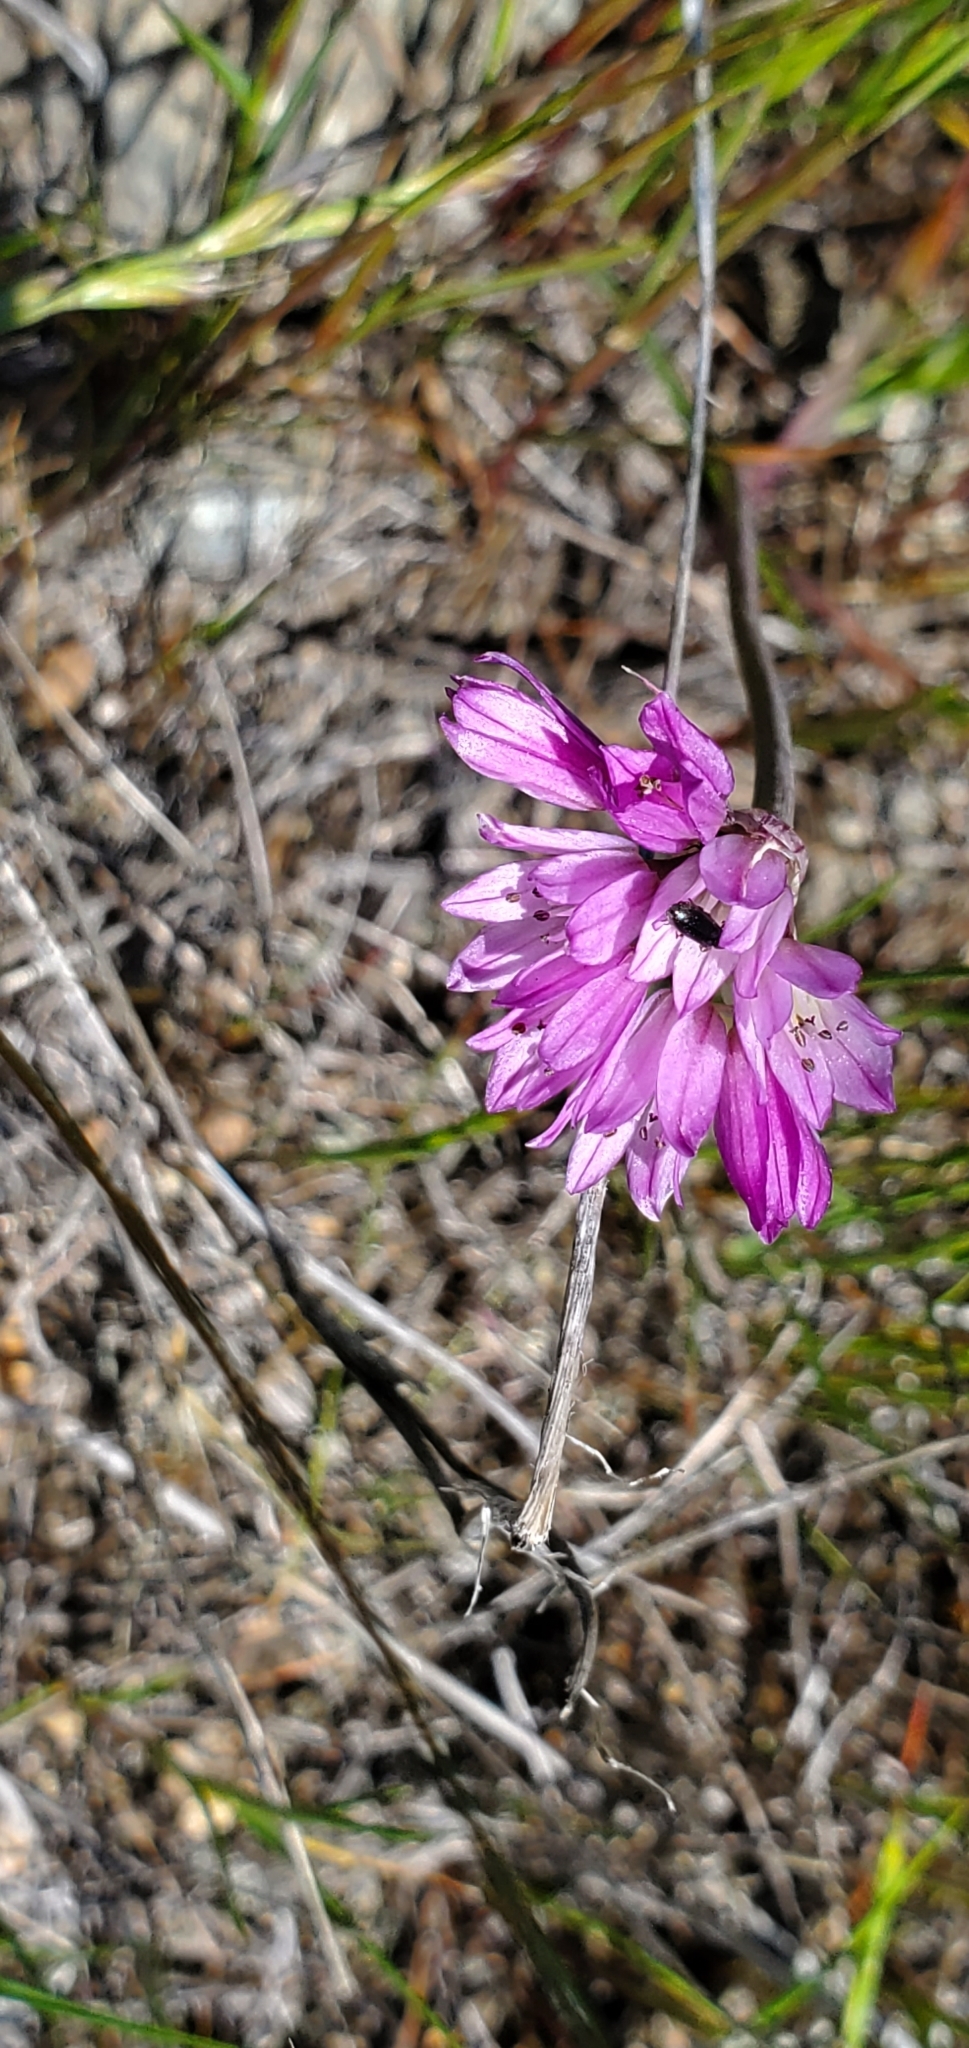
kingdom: Plantae
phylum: Tracheophyta
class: Liliopsida
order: Asparagales
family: Amaryllidaceae
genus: Allium
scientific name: Allium serra
